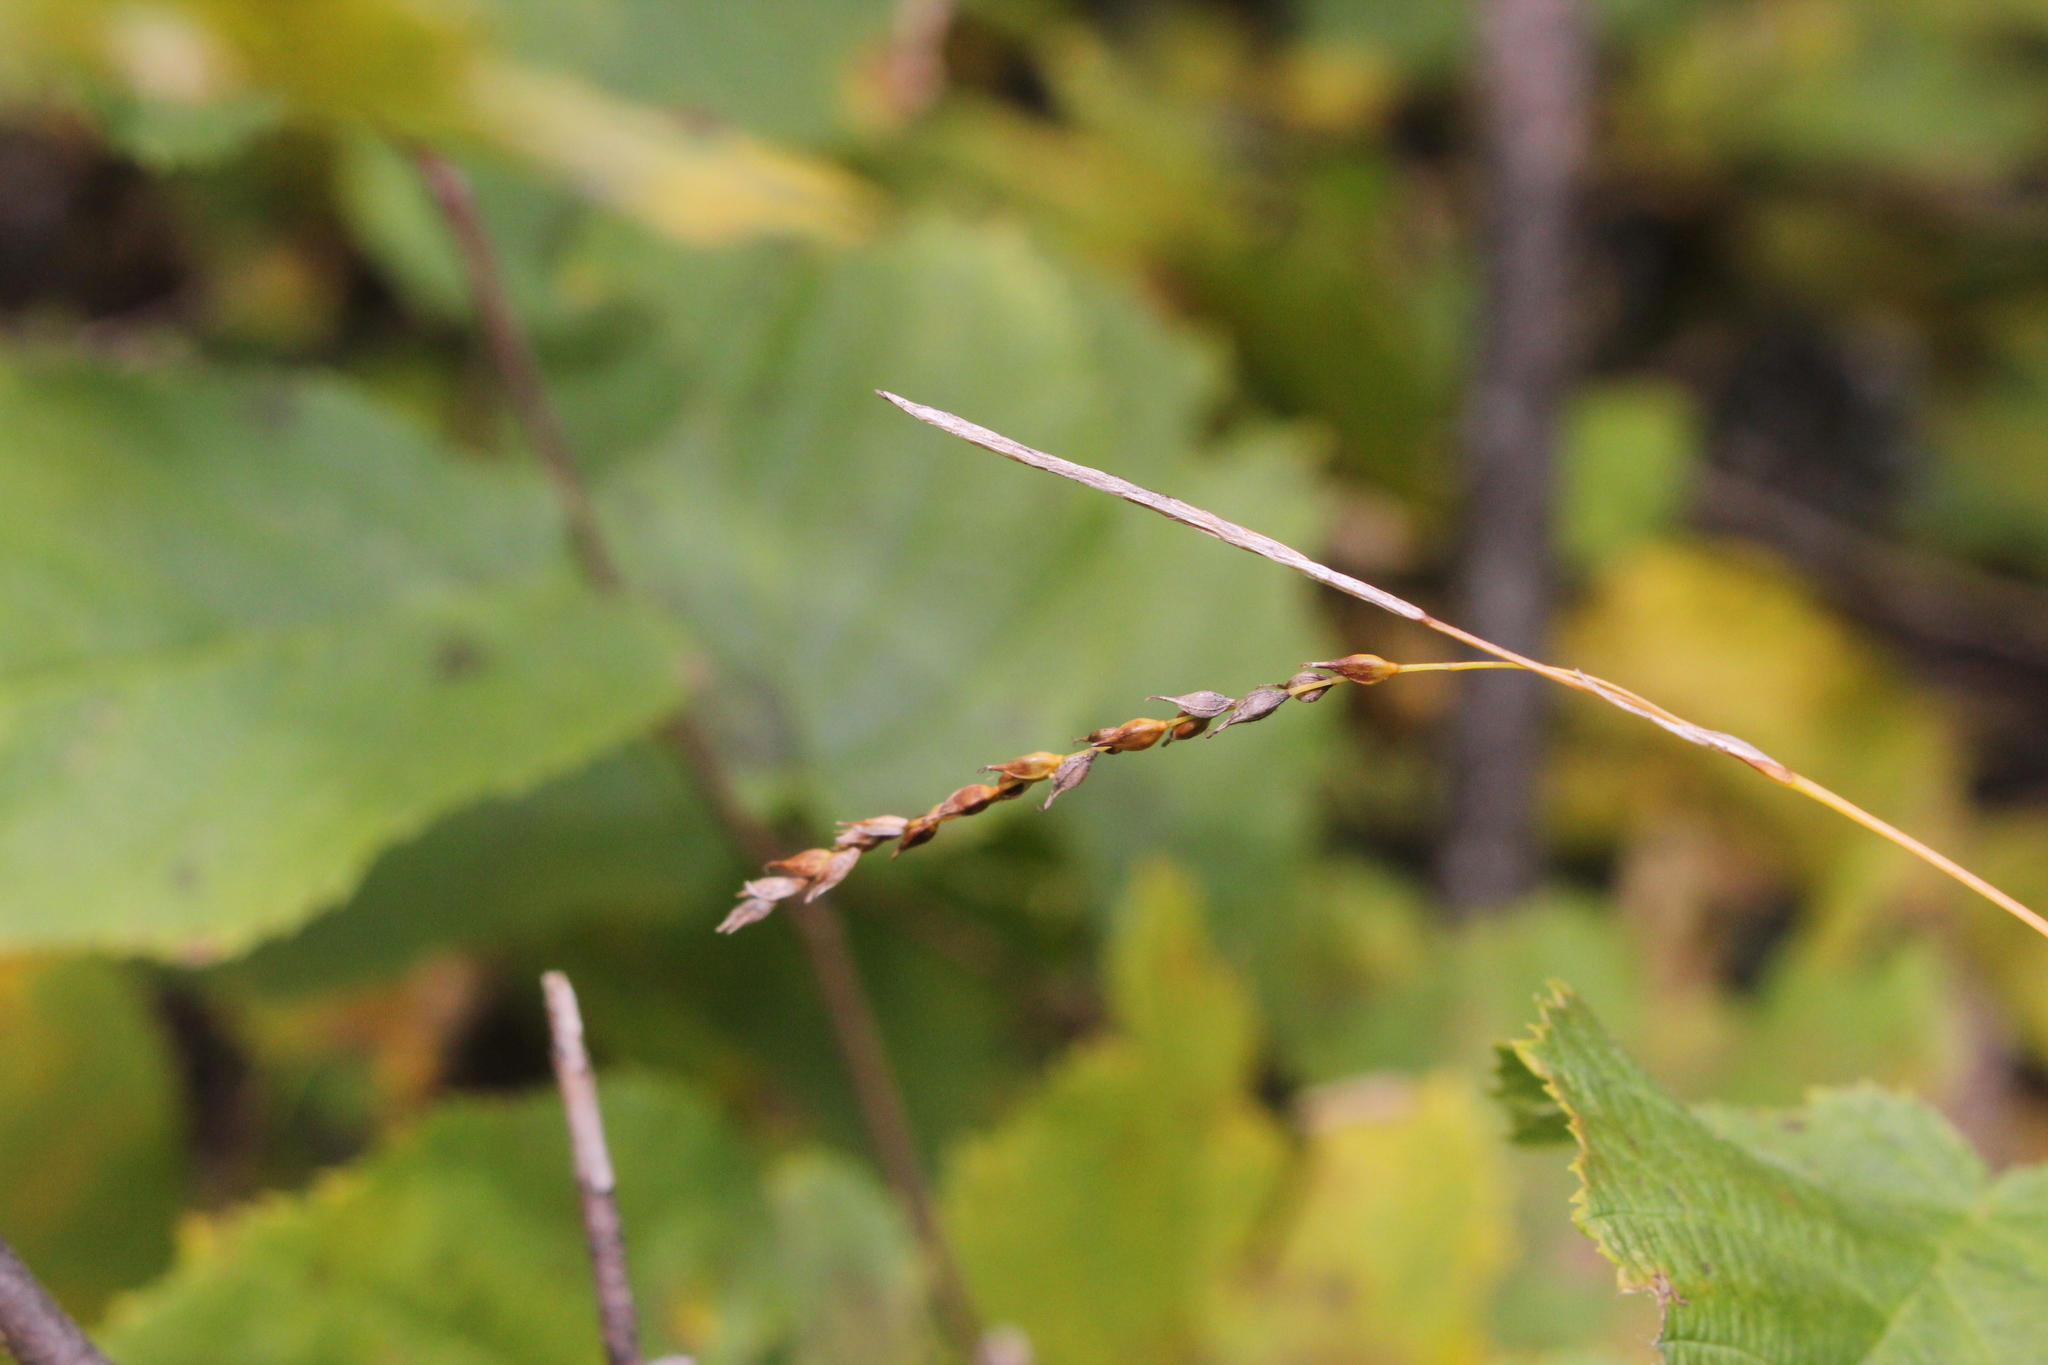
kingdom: Plantae
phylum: Tracheophyta
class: Liliopsida
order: Poales
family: Cyperaceae
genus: Carex
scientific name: Carex arctata
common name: Black sedge
